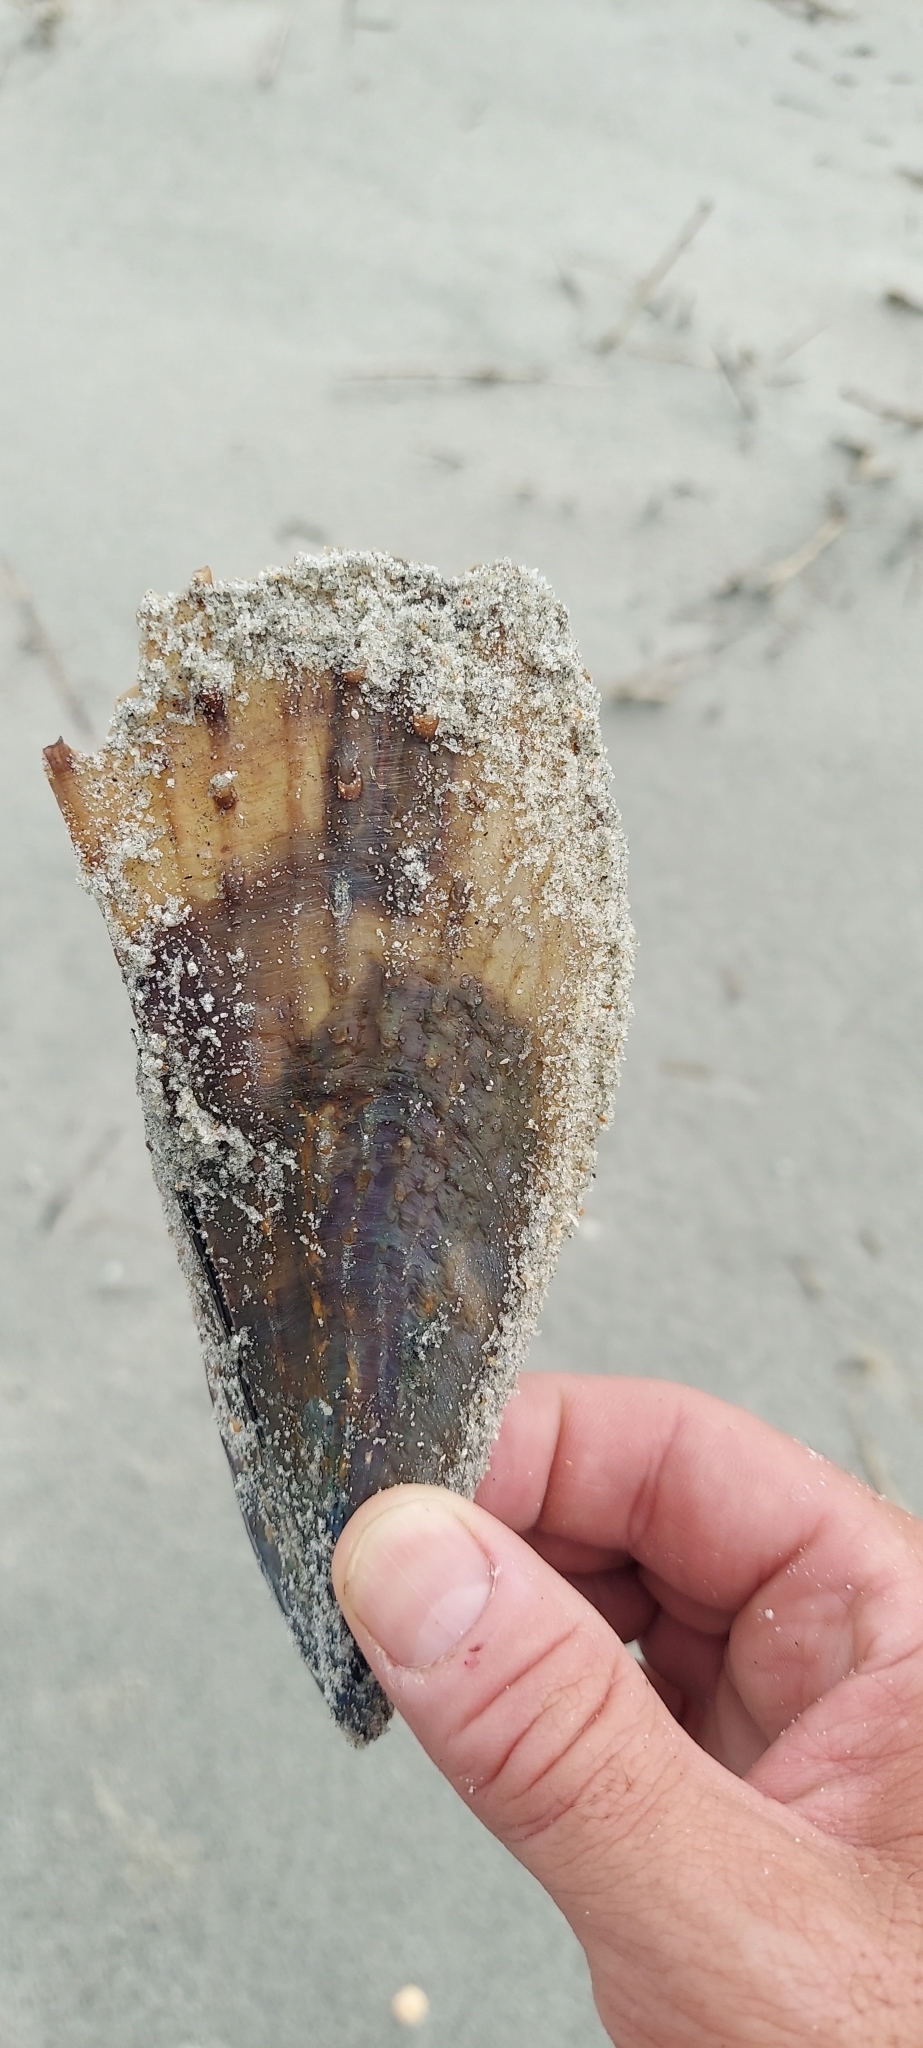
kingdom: Animalia
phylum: Mollusca
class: Bivalvia
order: Ostreida
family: Pinnidae
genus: Atrina
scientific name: Atrina rigida
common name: Stiff penshell
